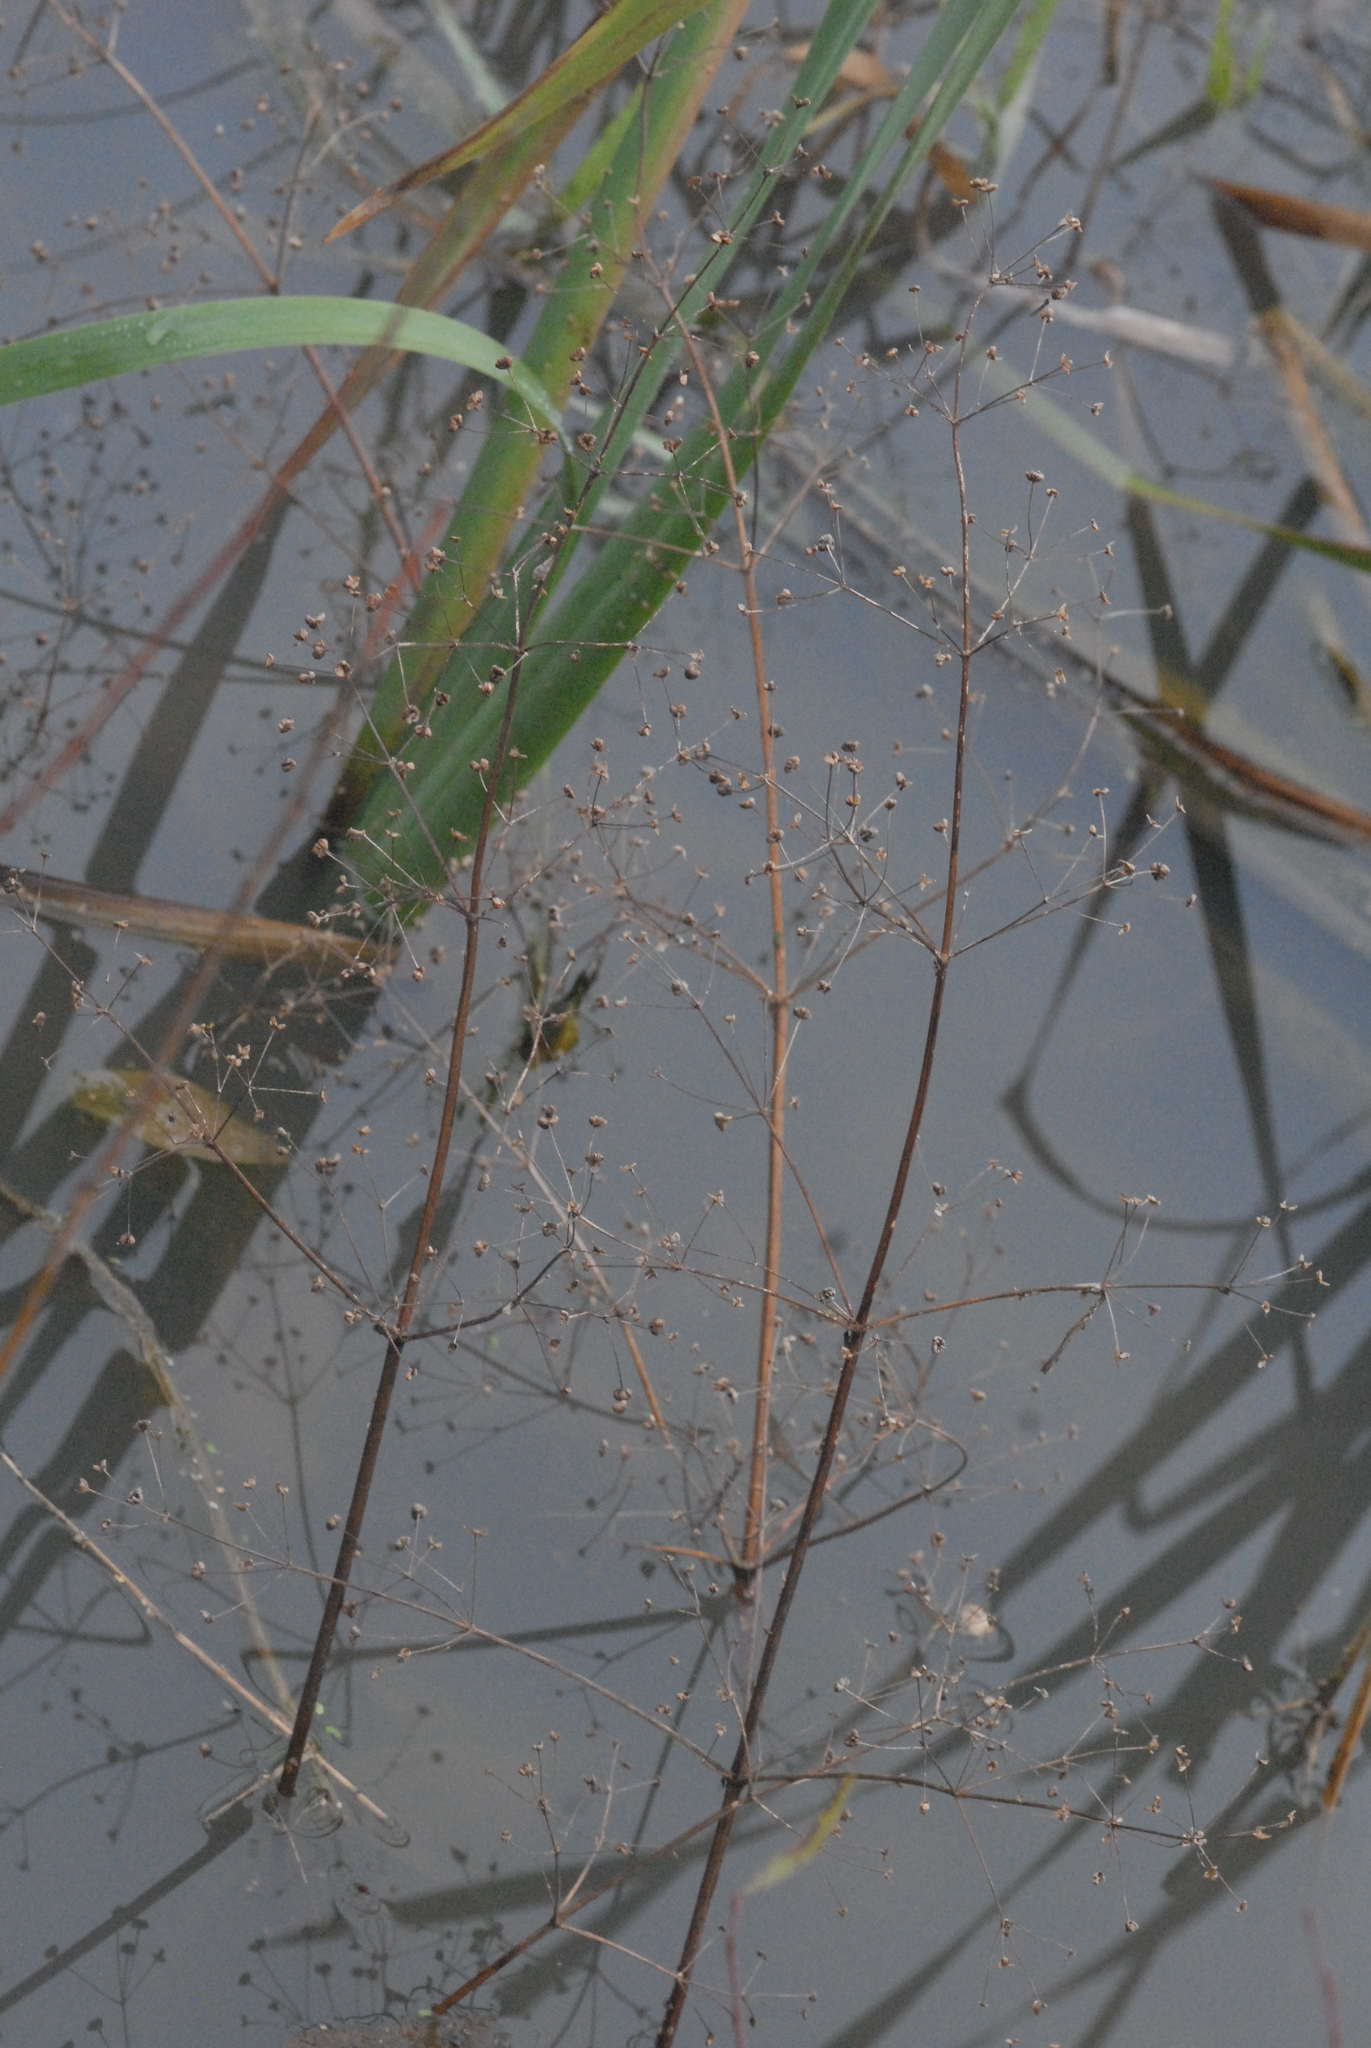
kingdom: Plantae
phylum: Tracheophyta
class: Liliopsida
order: Alismatales
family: Alismataceae
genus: Alisma
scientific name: Alisma plantago-aquatica
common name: Water-plantain
